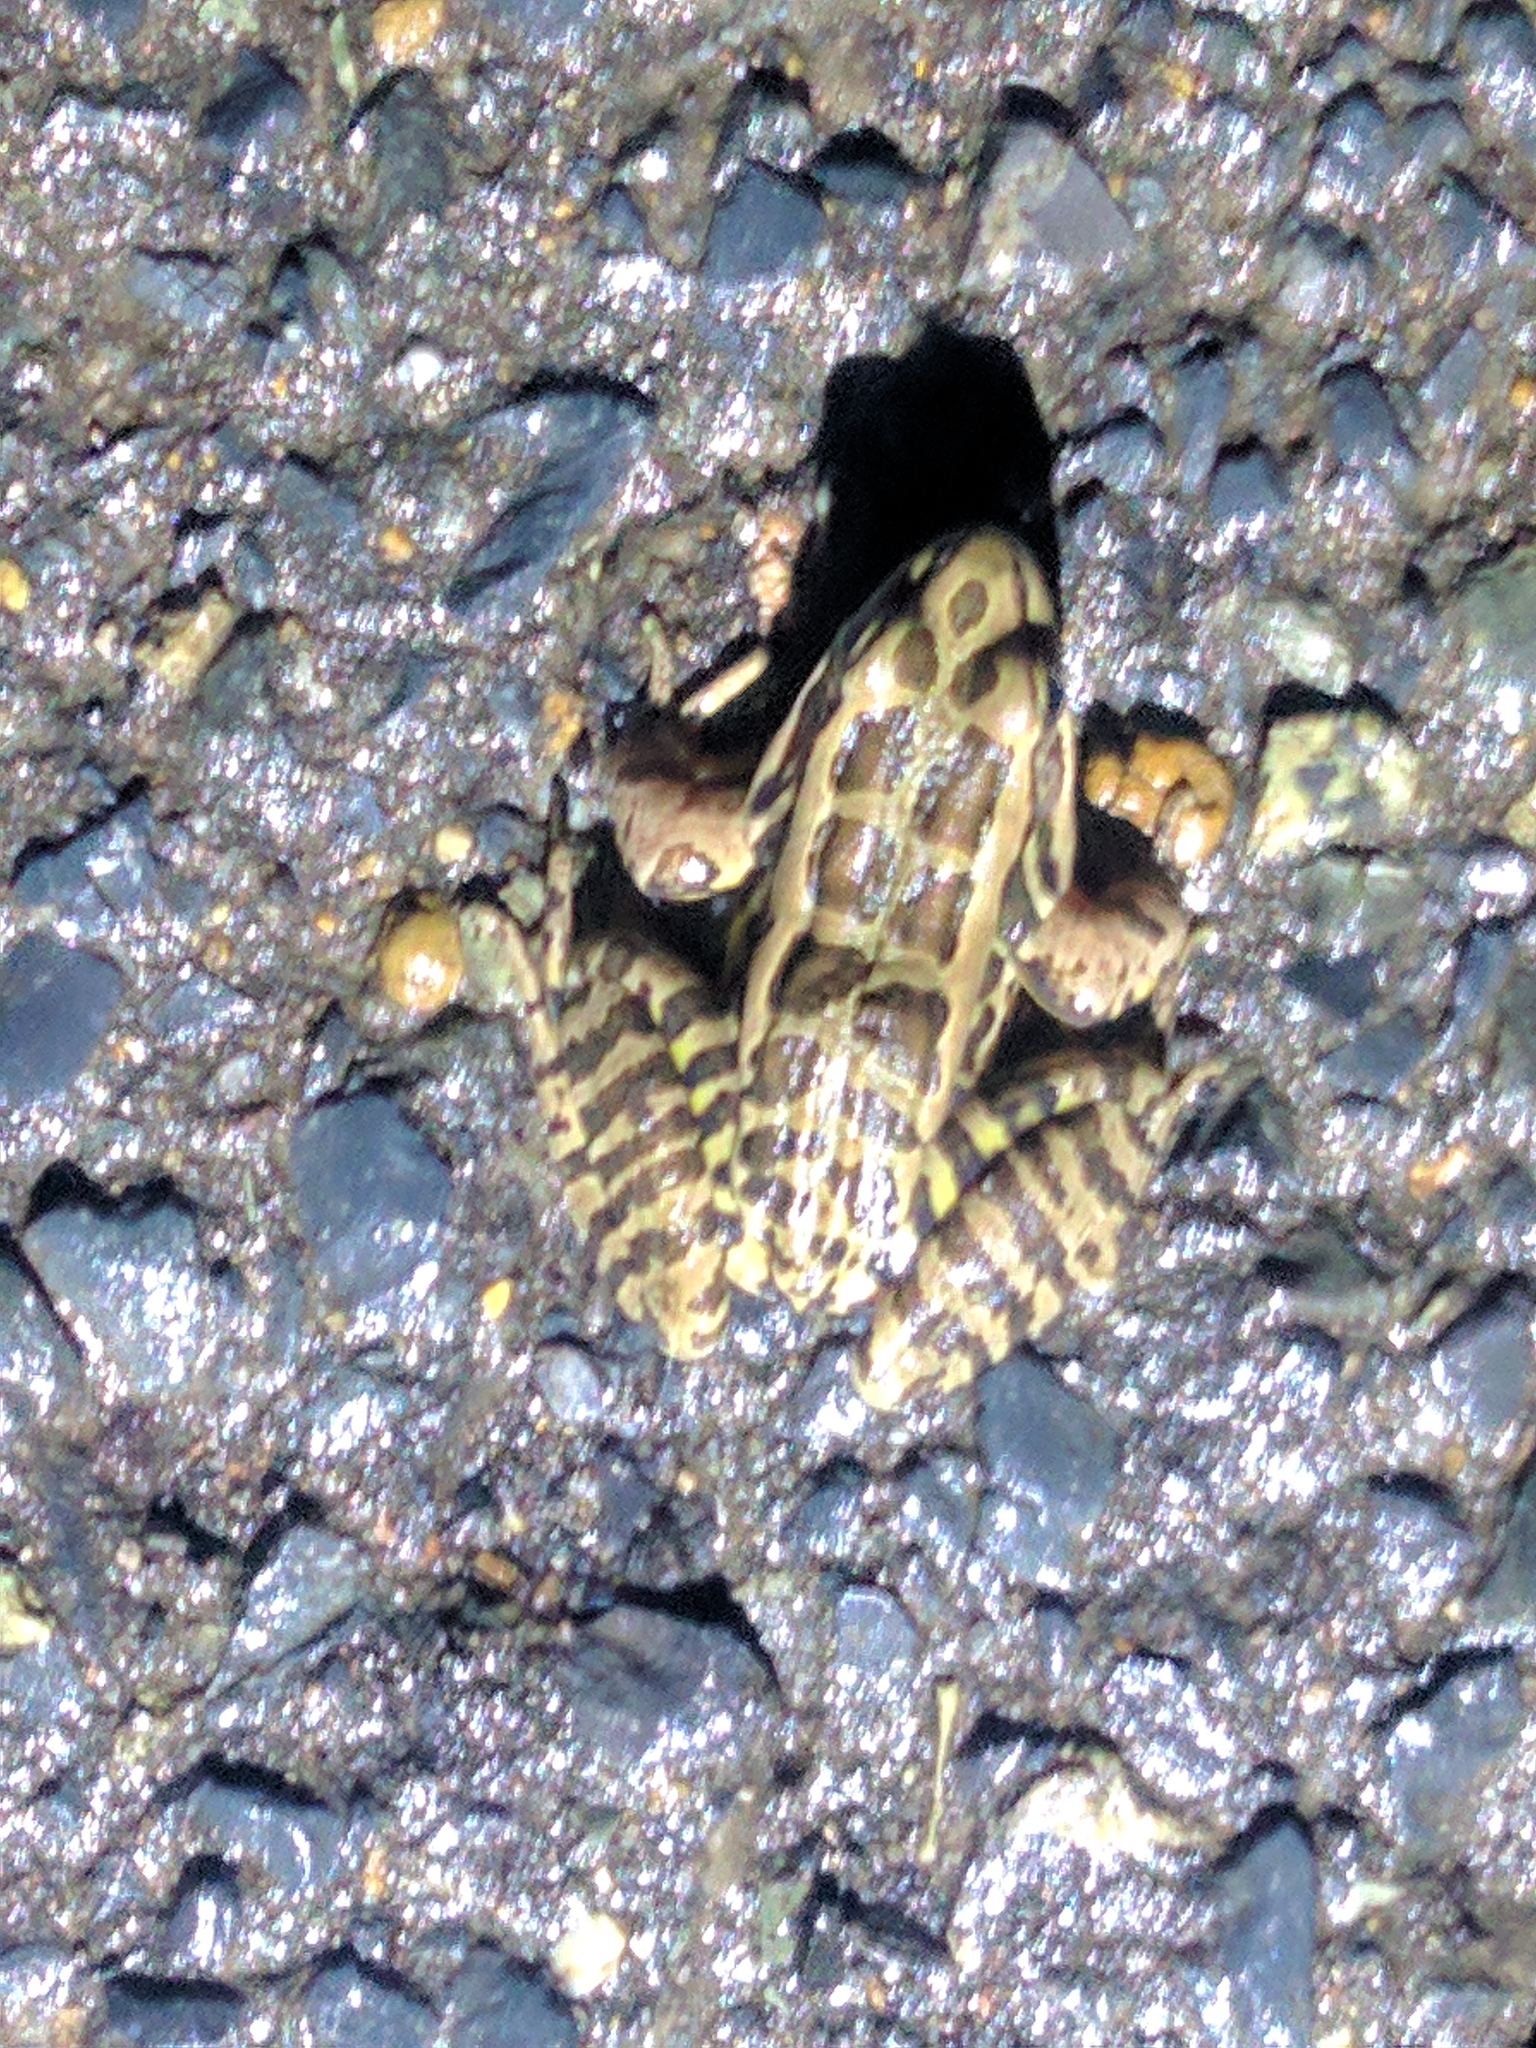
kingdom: Animalia
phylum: Chordata
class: Amphibia
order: Anura
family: Ranidae
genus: Lithobates
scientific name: Lithobates palustris
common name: Pickerel frog
